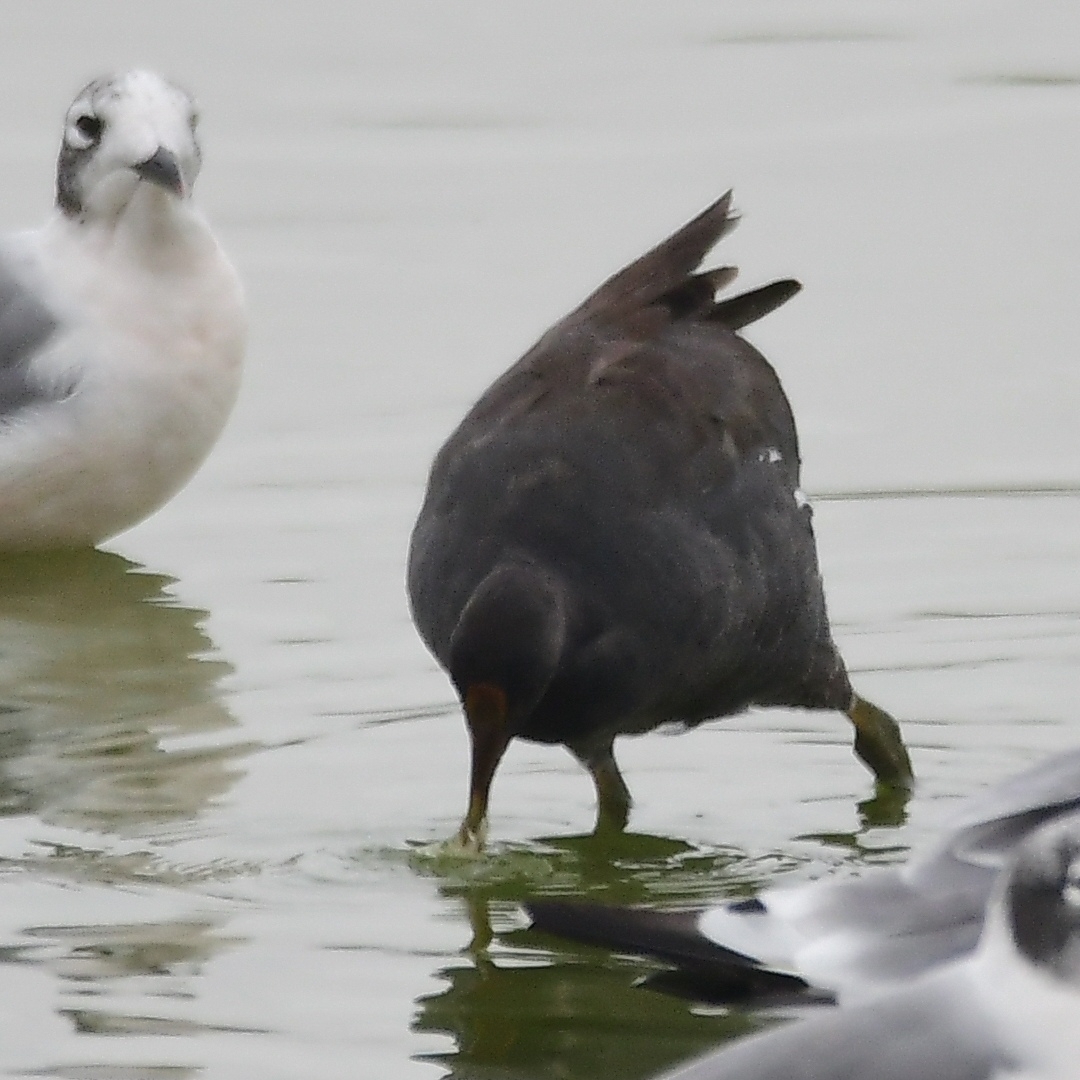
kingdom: Animalia
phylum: Chordata
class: Aves
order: Gruiformes
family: Rallidae
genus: Gallinula
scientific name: Gallinula chloropus
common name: Common moorhen
